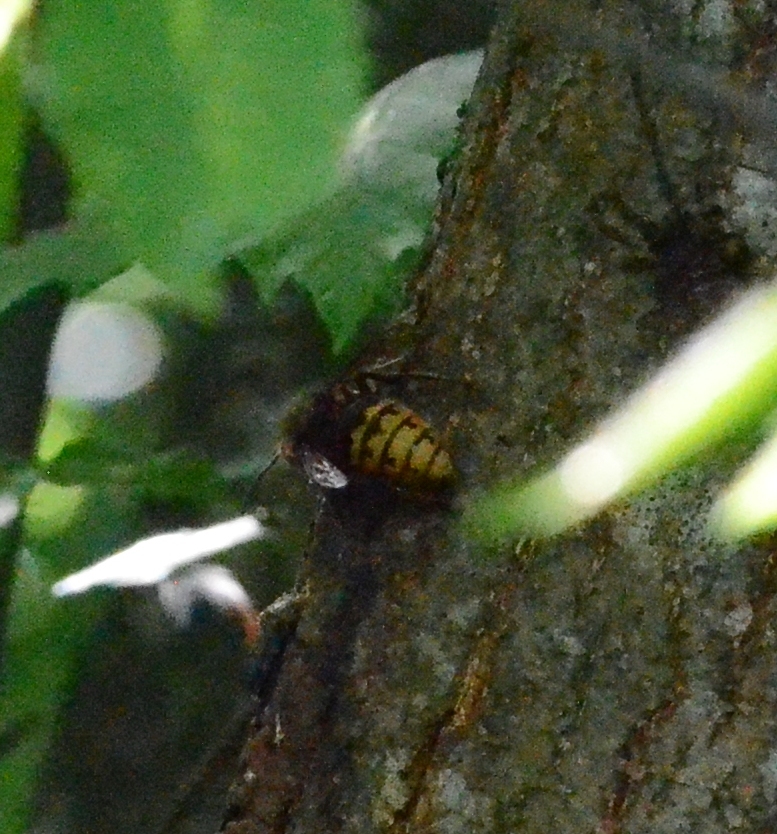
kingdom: Animalia
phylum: Arthropoda
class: Insecta
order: Hymenoptera
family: Vespidae
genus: Vespa
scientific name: Vespa crabro
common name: Hornet
